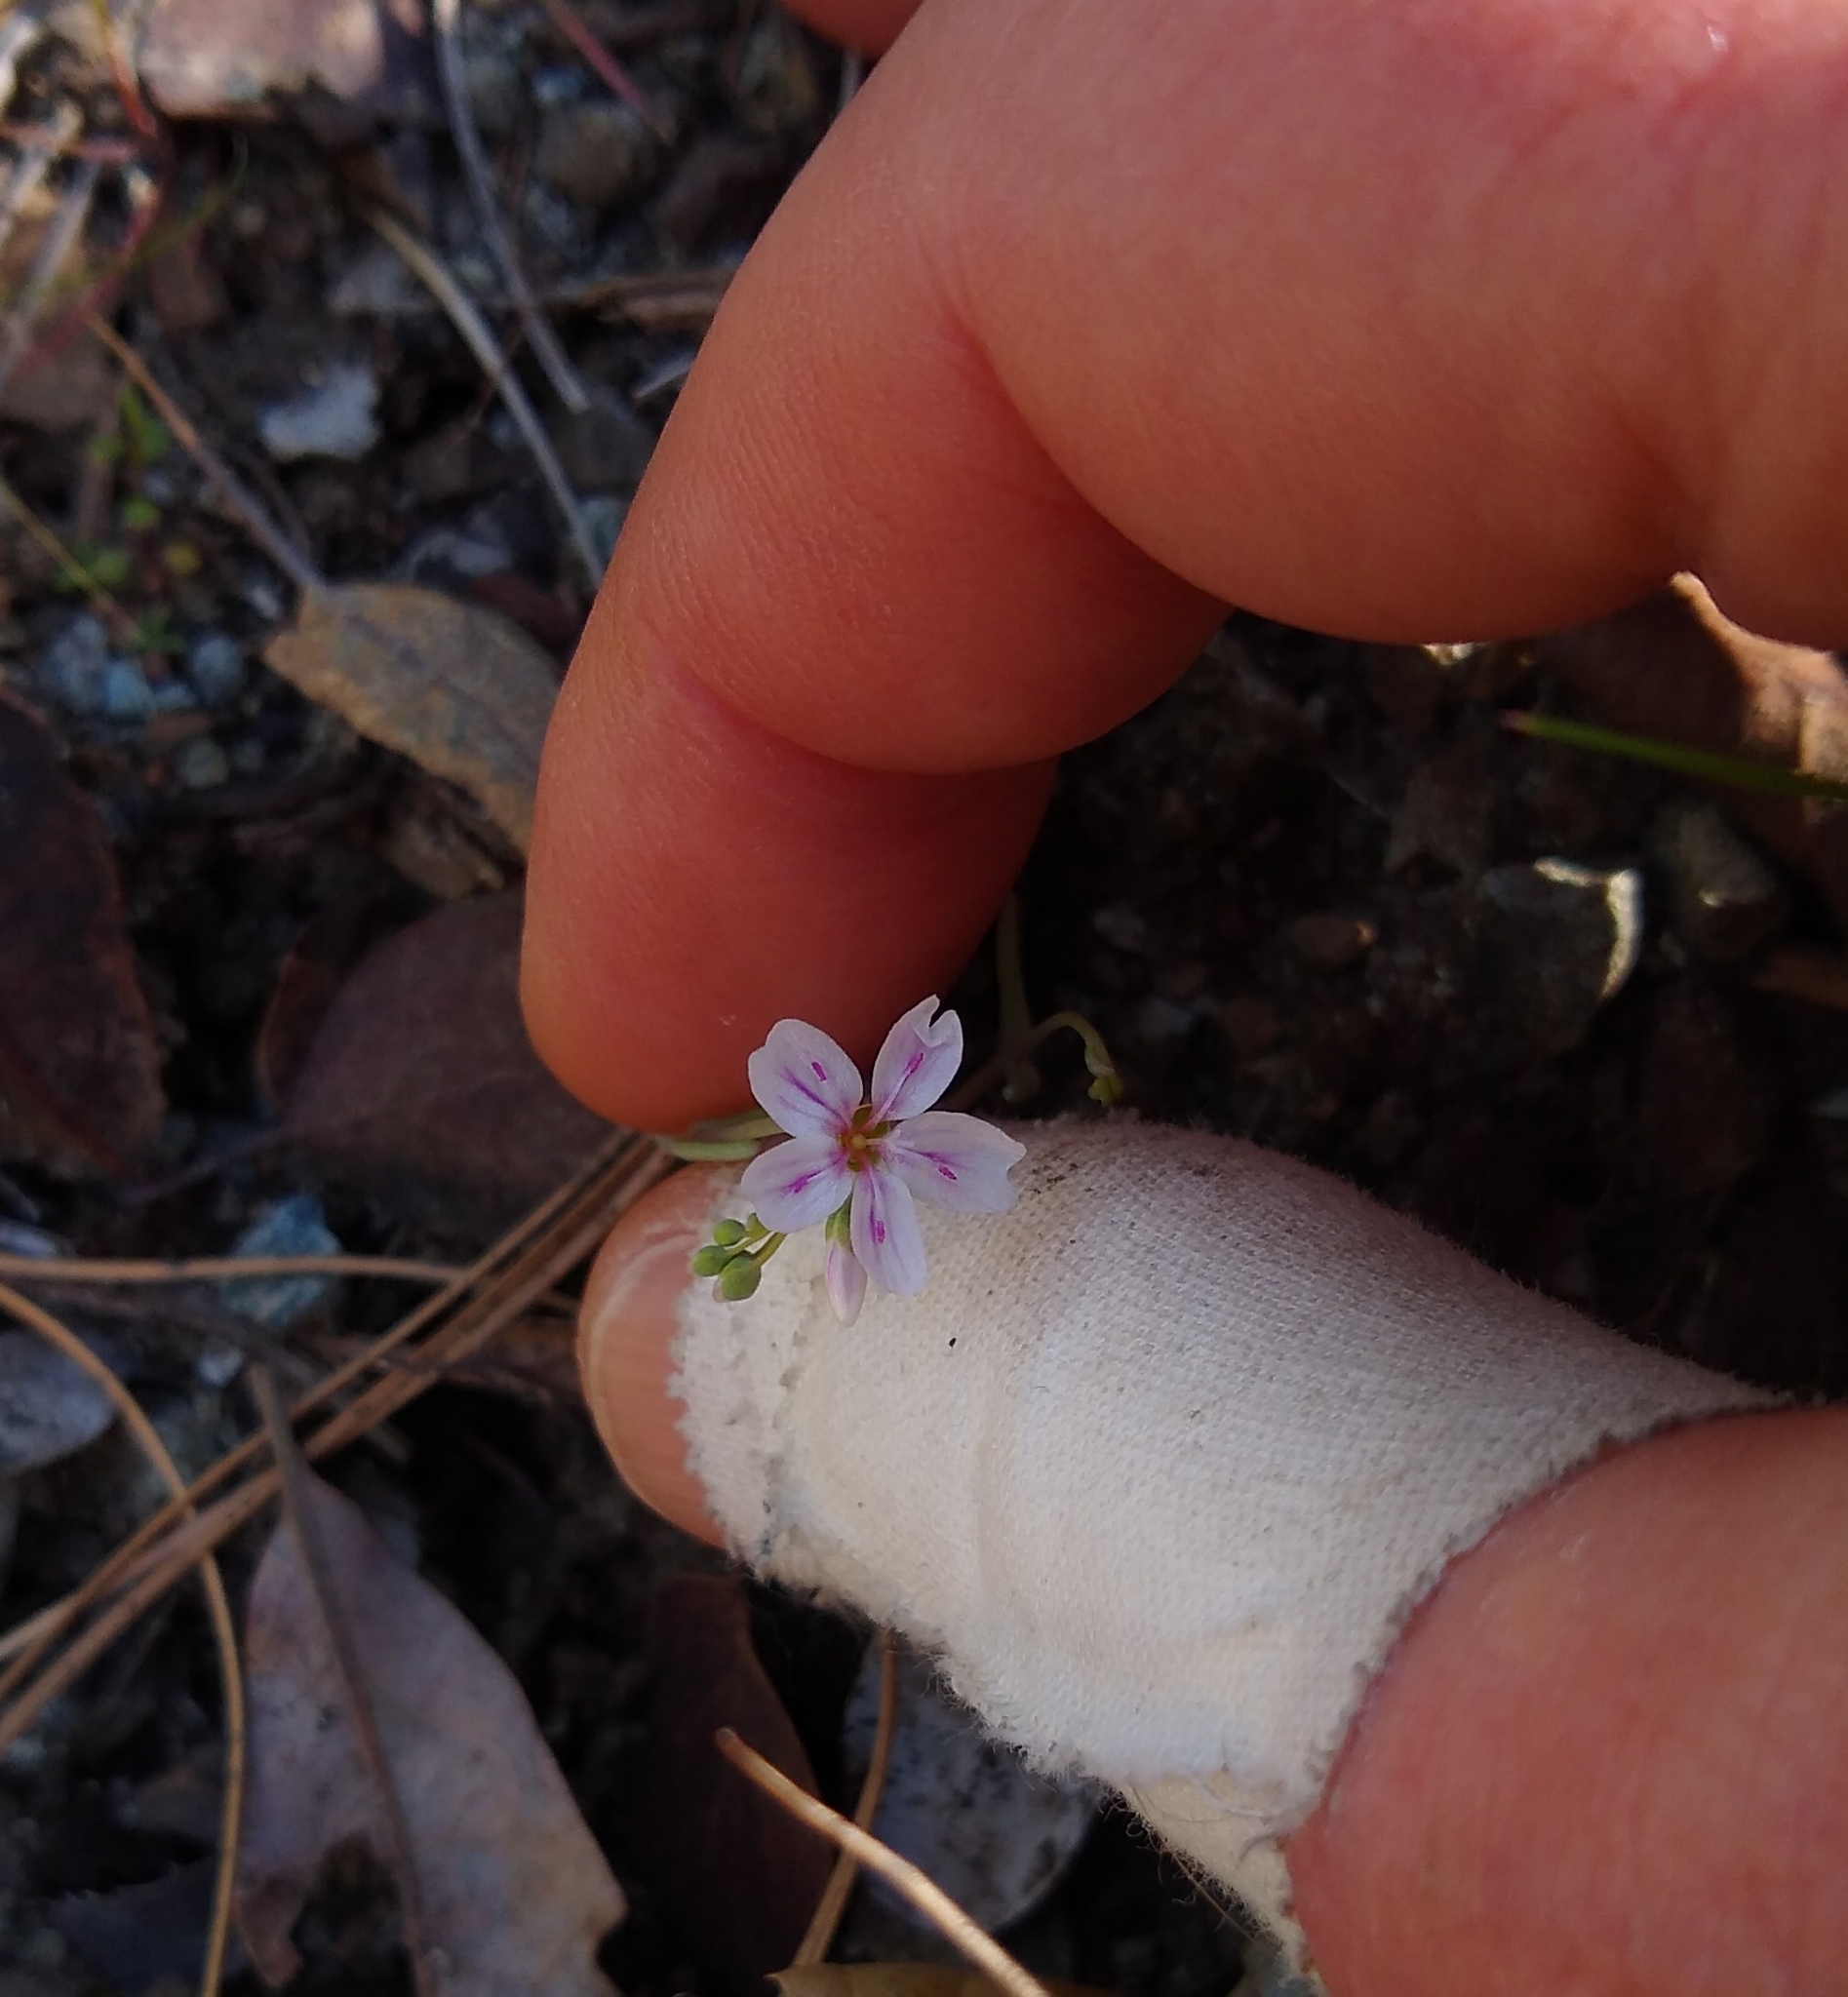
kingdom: Plantae
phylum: Tracheophyta
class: Magnoliopsida
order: Caryophyllales
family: Montiaceae
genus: Claytonia
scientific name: Claytonia gypsophiloides
